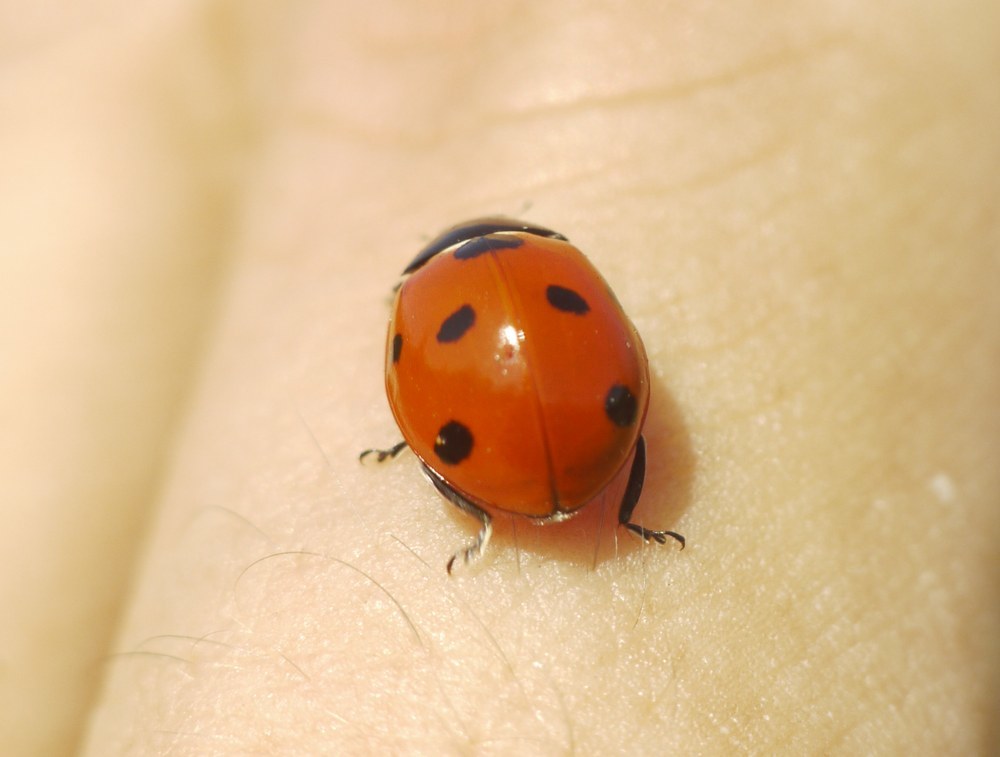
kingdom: Animalia
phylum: Arthropoda
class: Insecta
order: Coleoptera
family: Coccinellidae
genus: Coccinella
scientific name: Coccinella septempunctata
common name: Sevenspotted lady beetle
